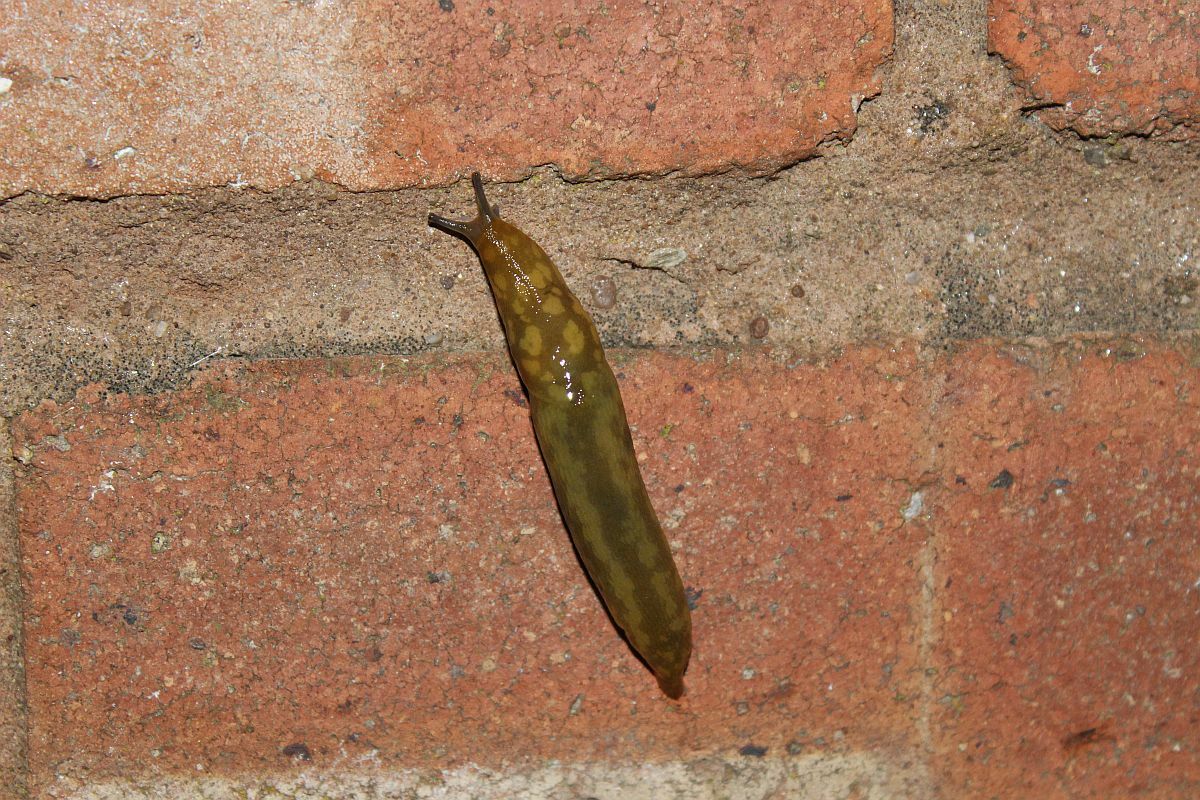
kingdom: Animalia
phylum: Mollusca
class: Gastropoda
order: Stylommatophora
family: Limacidae
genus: Limacus
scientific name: Limacus maculatus
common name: Irish yellow slug
